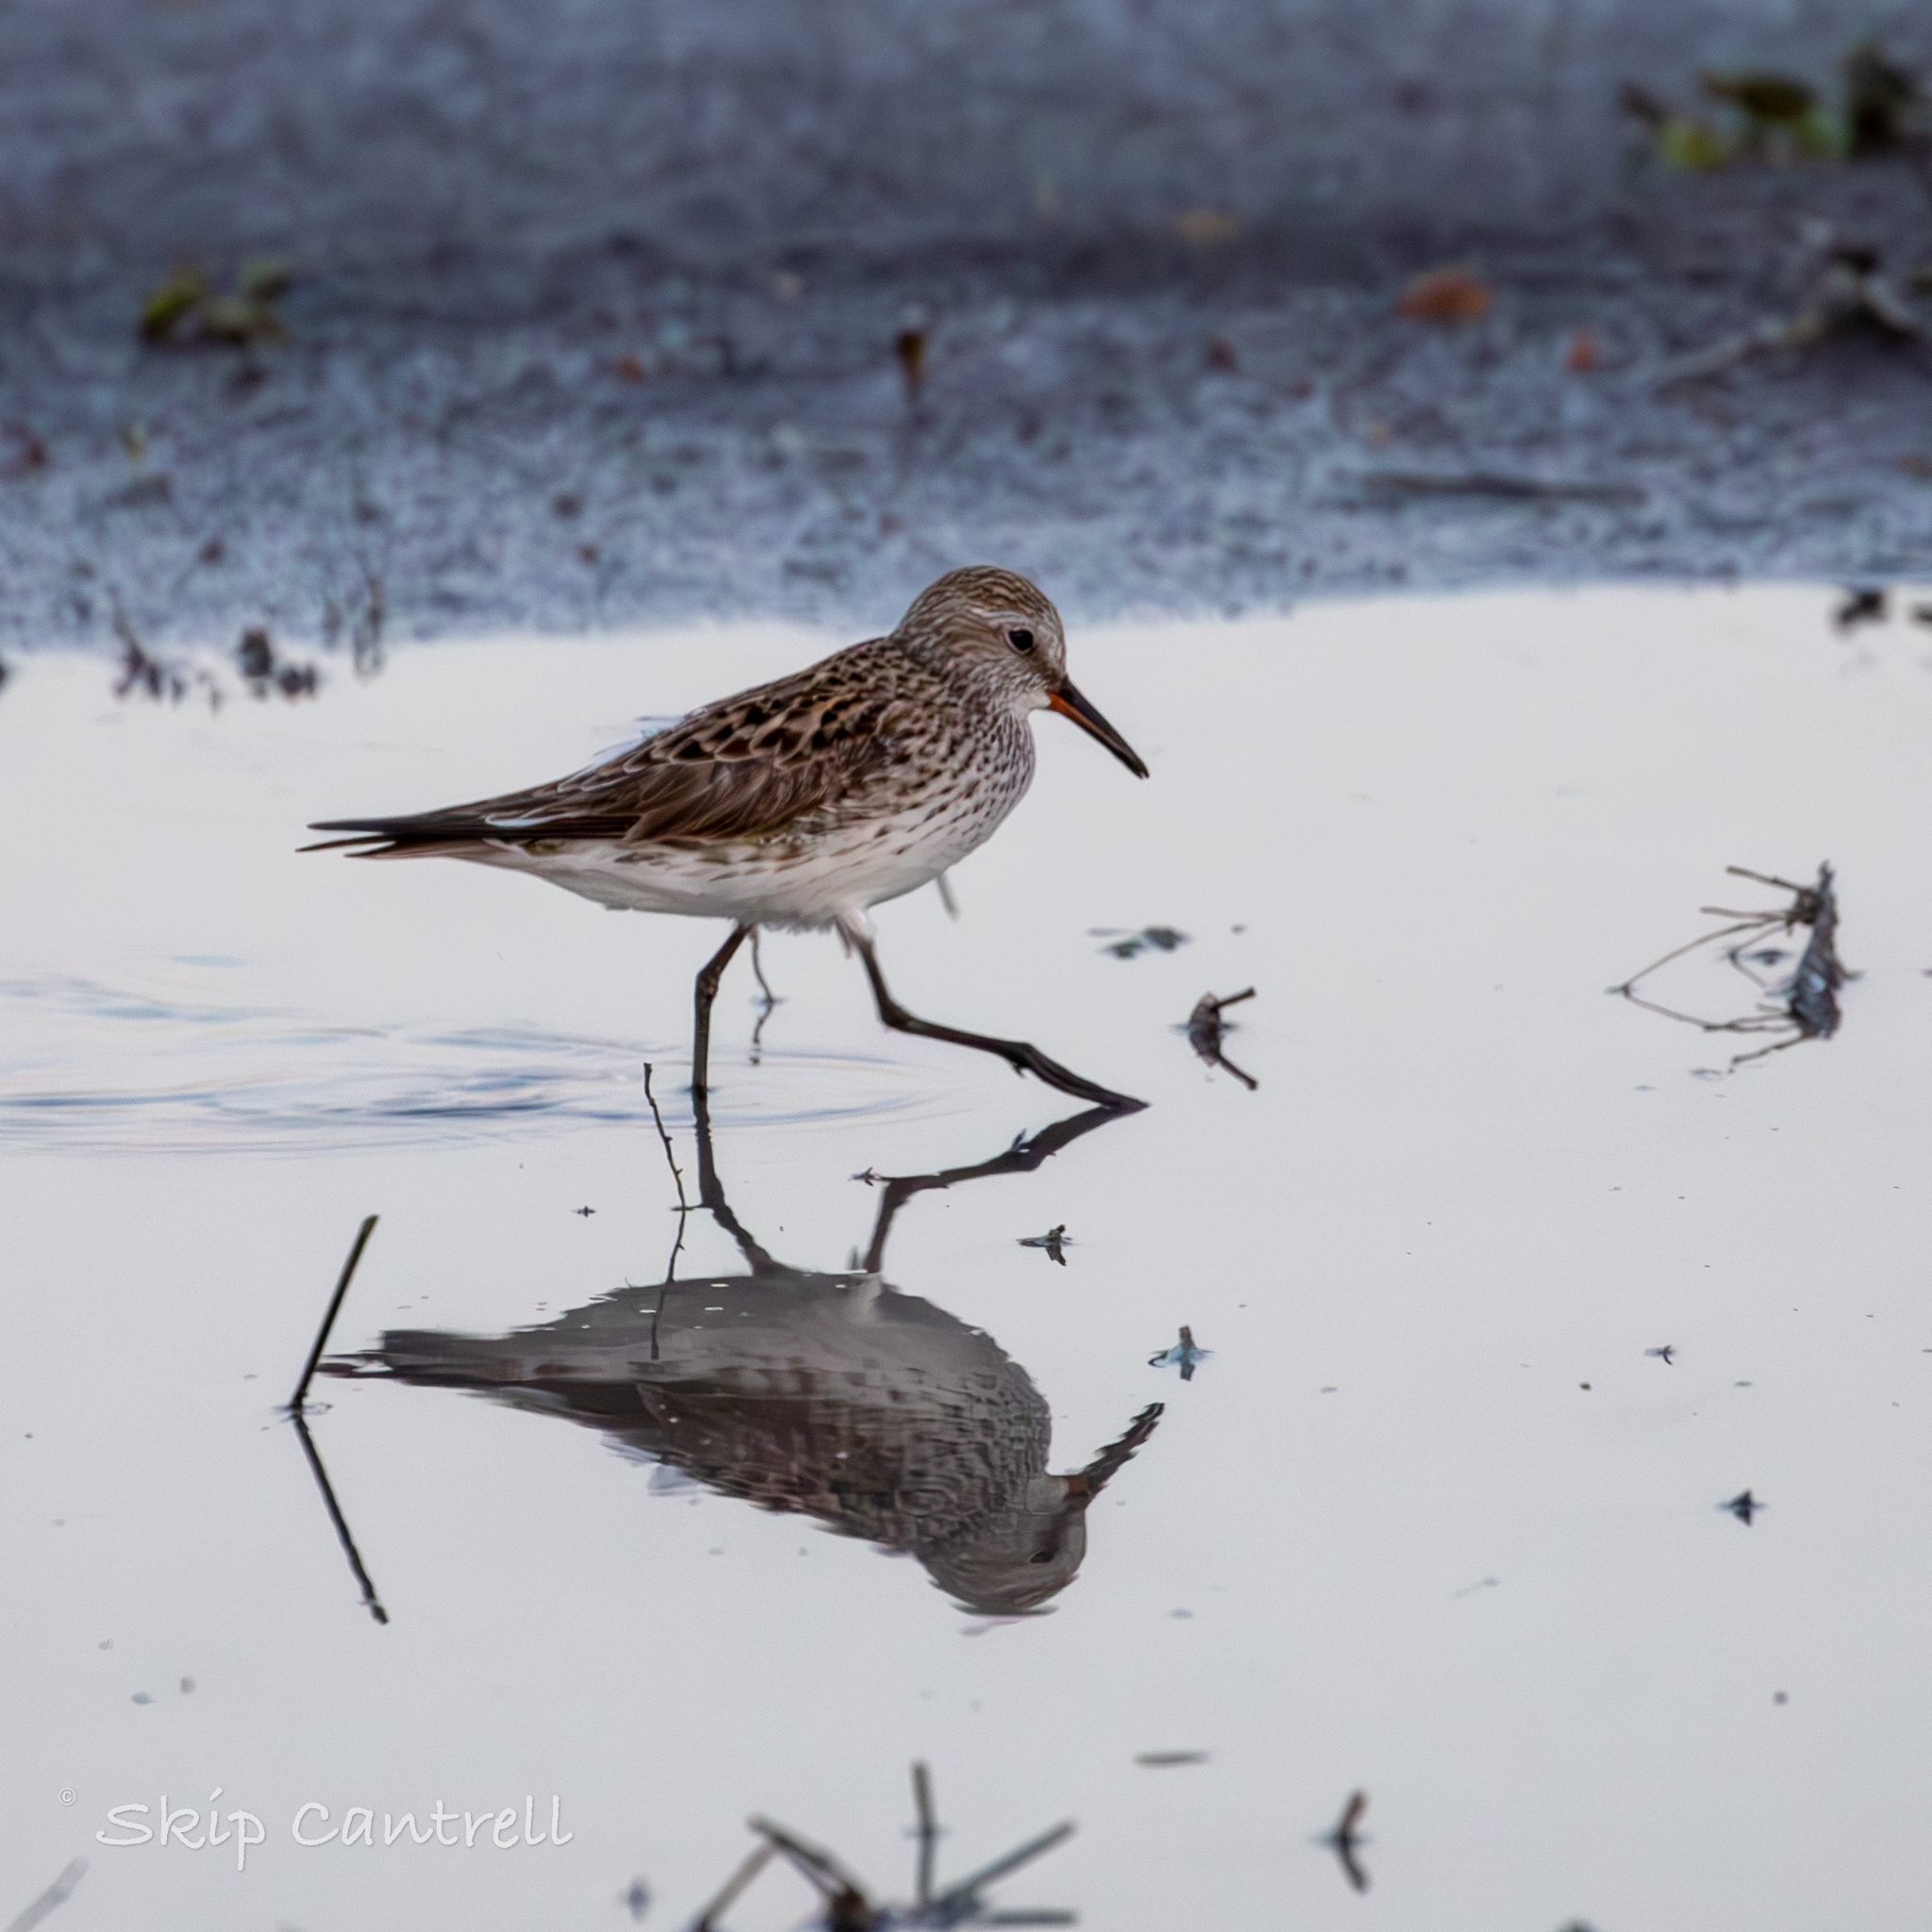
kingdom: Animalia
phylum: Chordata
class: Aves
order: Charadriiformes
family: Scolopacidae
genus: Calidris
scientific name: Calidris fuscicollis
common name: White-rumped sandpiper
